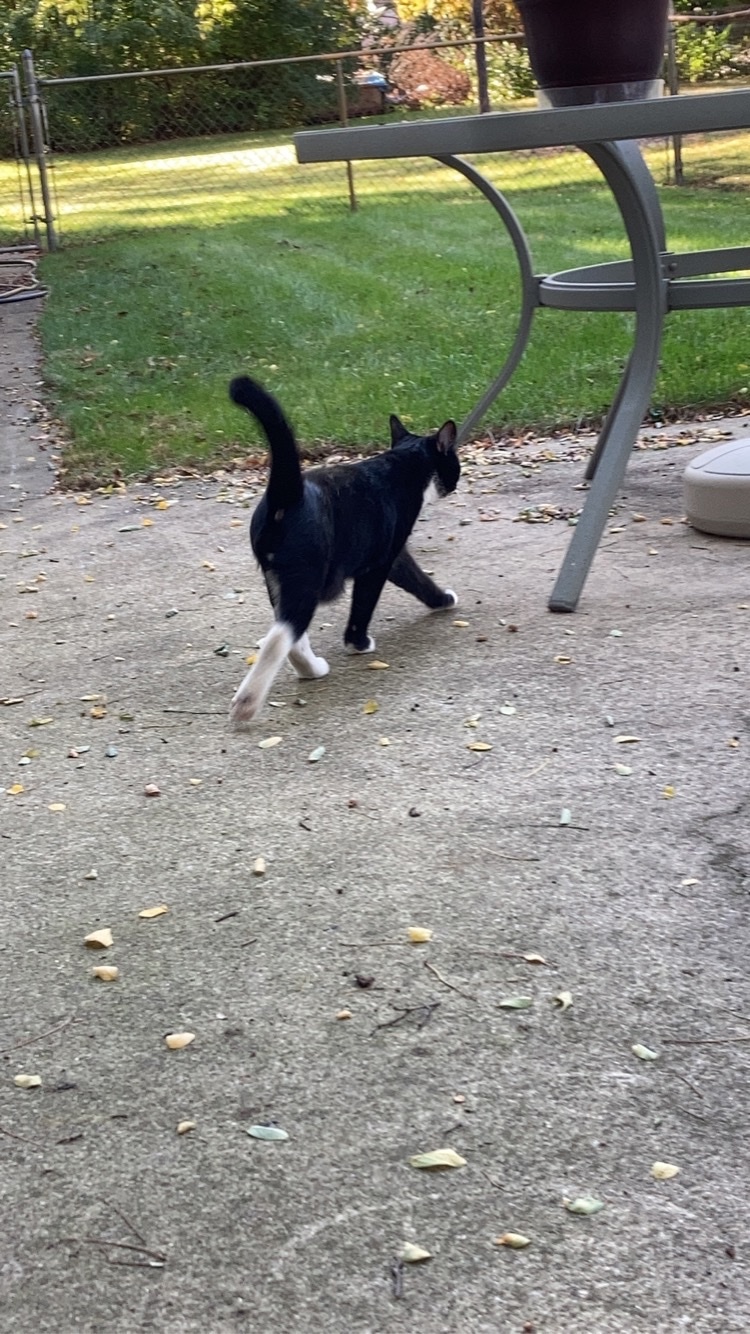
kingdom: Animalia
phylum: Chordata
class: Mammalia
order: Carnivora
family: Felidae
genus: Felis
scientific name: Felis catus
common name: Domestic cat
